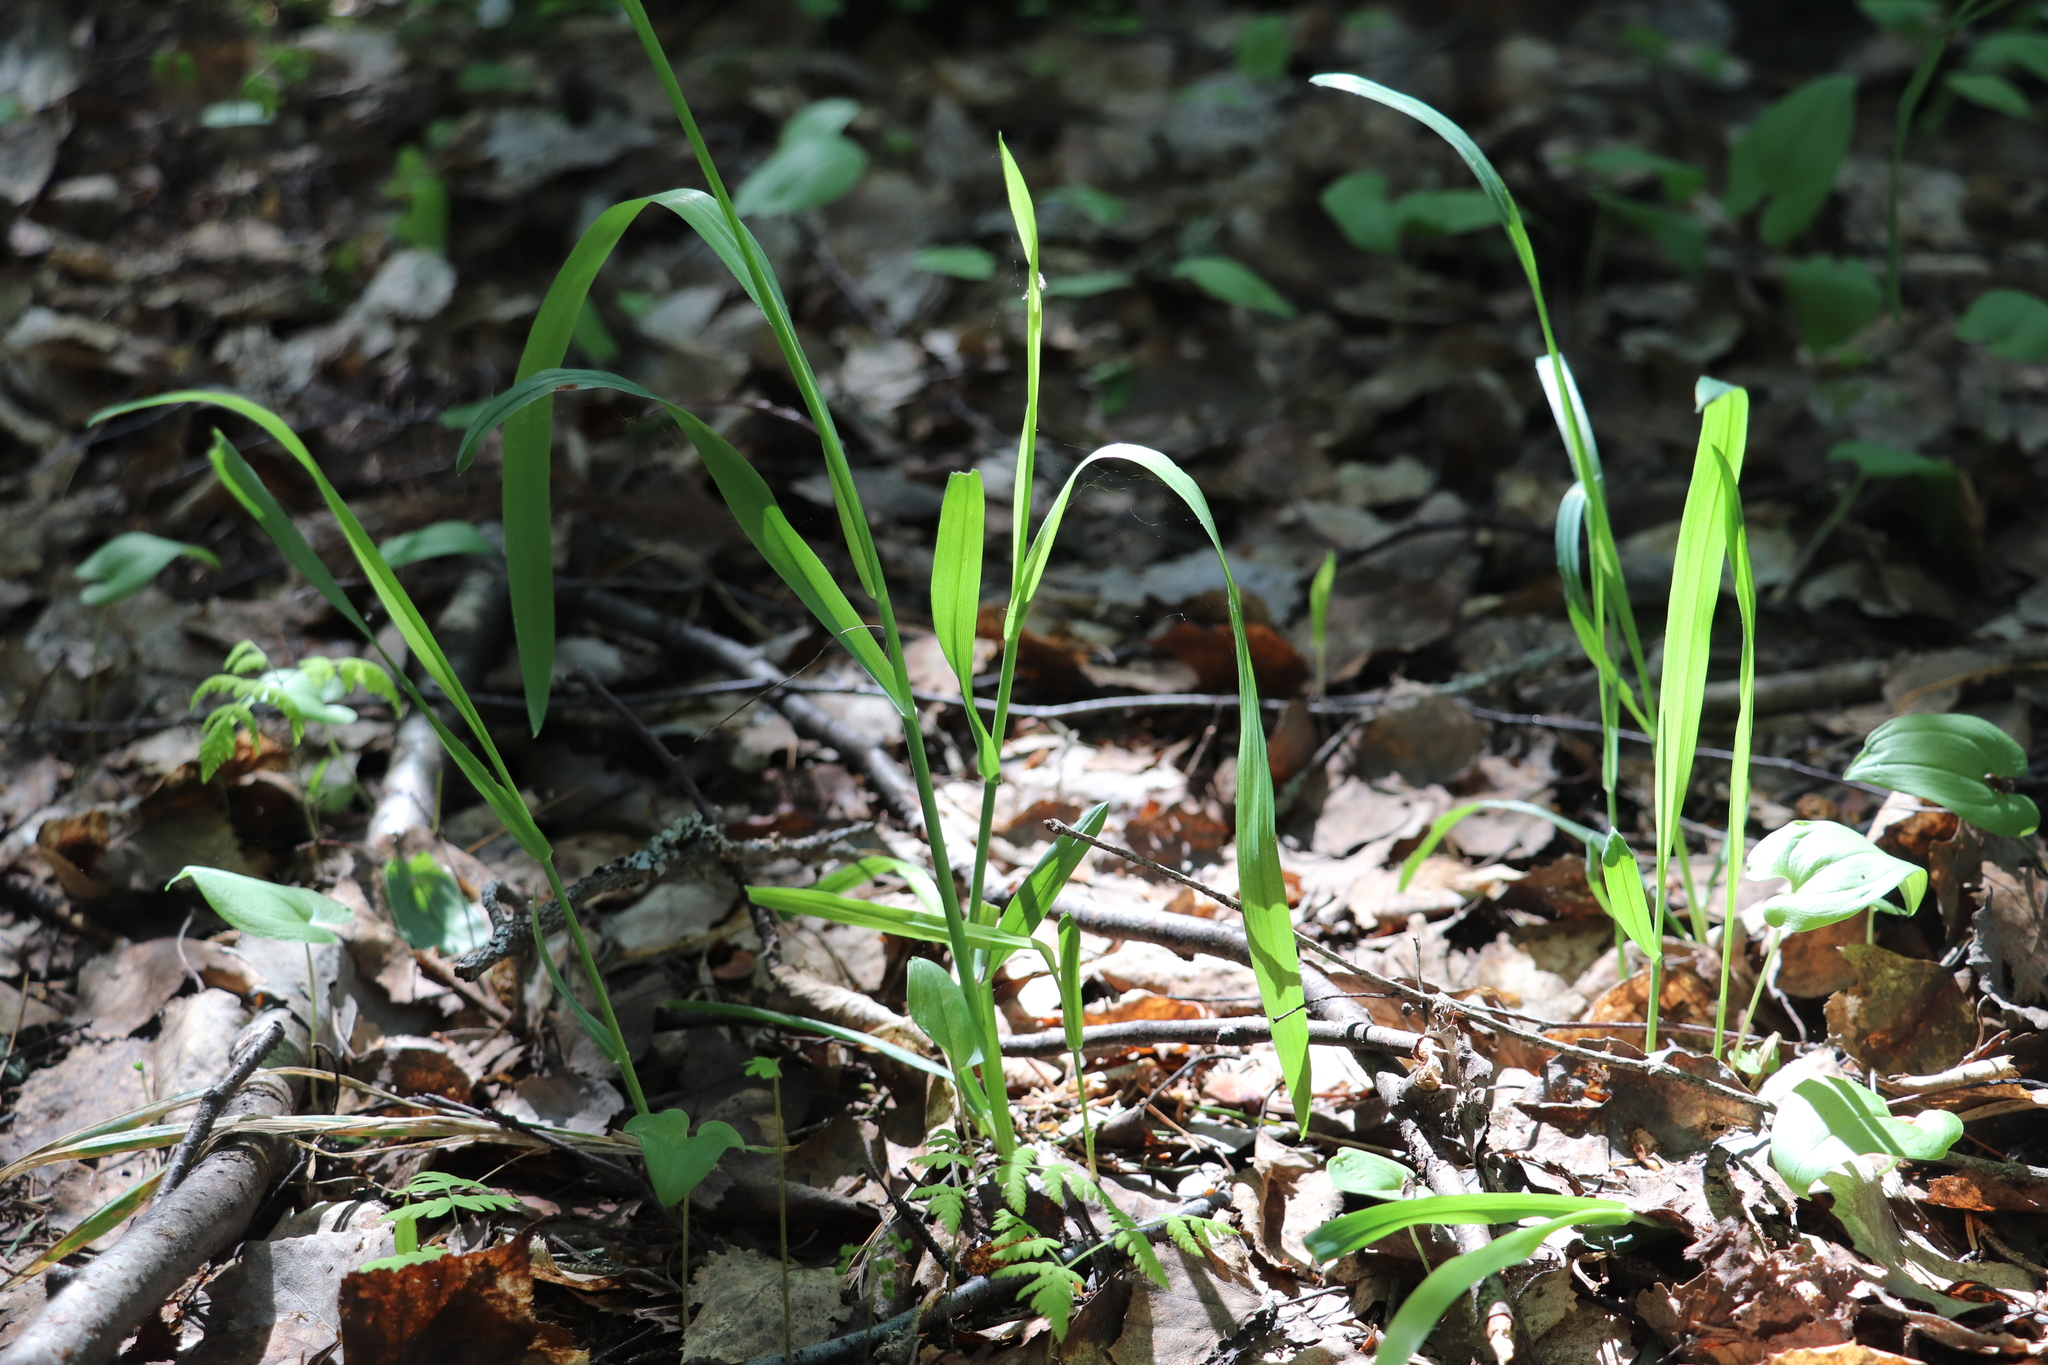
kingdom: Plantae
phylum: Tracheophyta
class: Liliopsida
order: Poales
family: Poaceae
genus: Milium
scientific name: Milium effusum
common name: Wood millet
